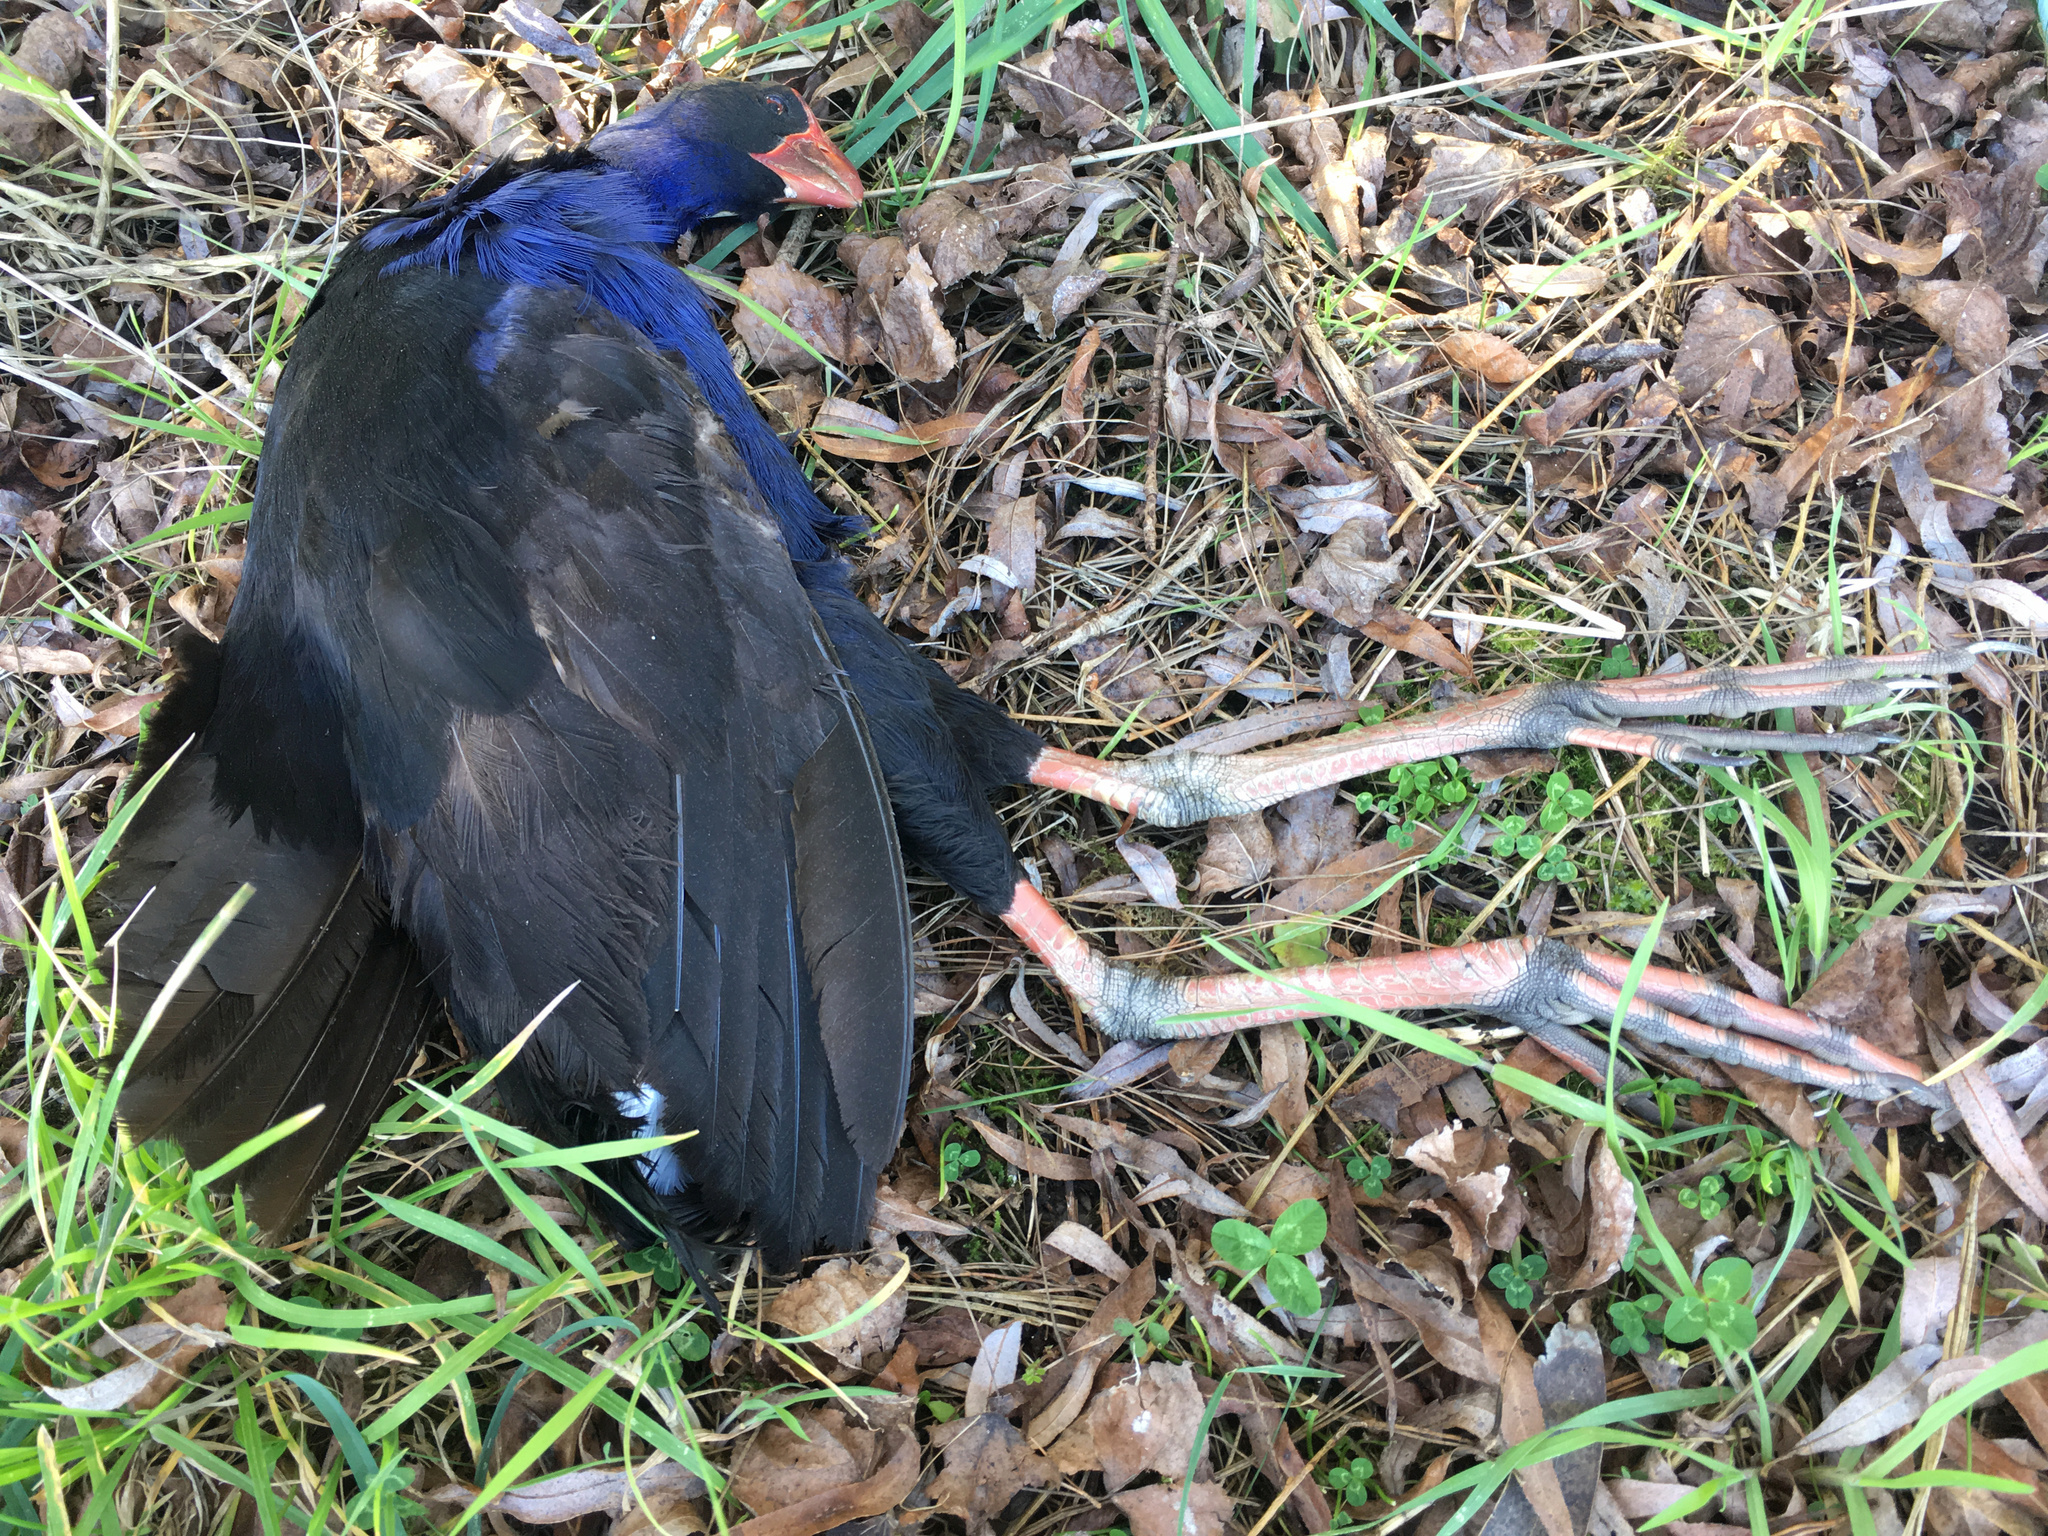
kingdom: Animalia
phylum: Chordata
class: Aves
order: Gruiformes
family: Rallidae
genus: Porphyrio
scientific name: Porphyrio melanotus
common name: Australasian swamphen
